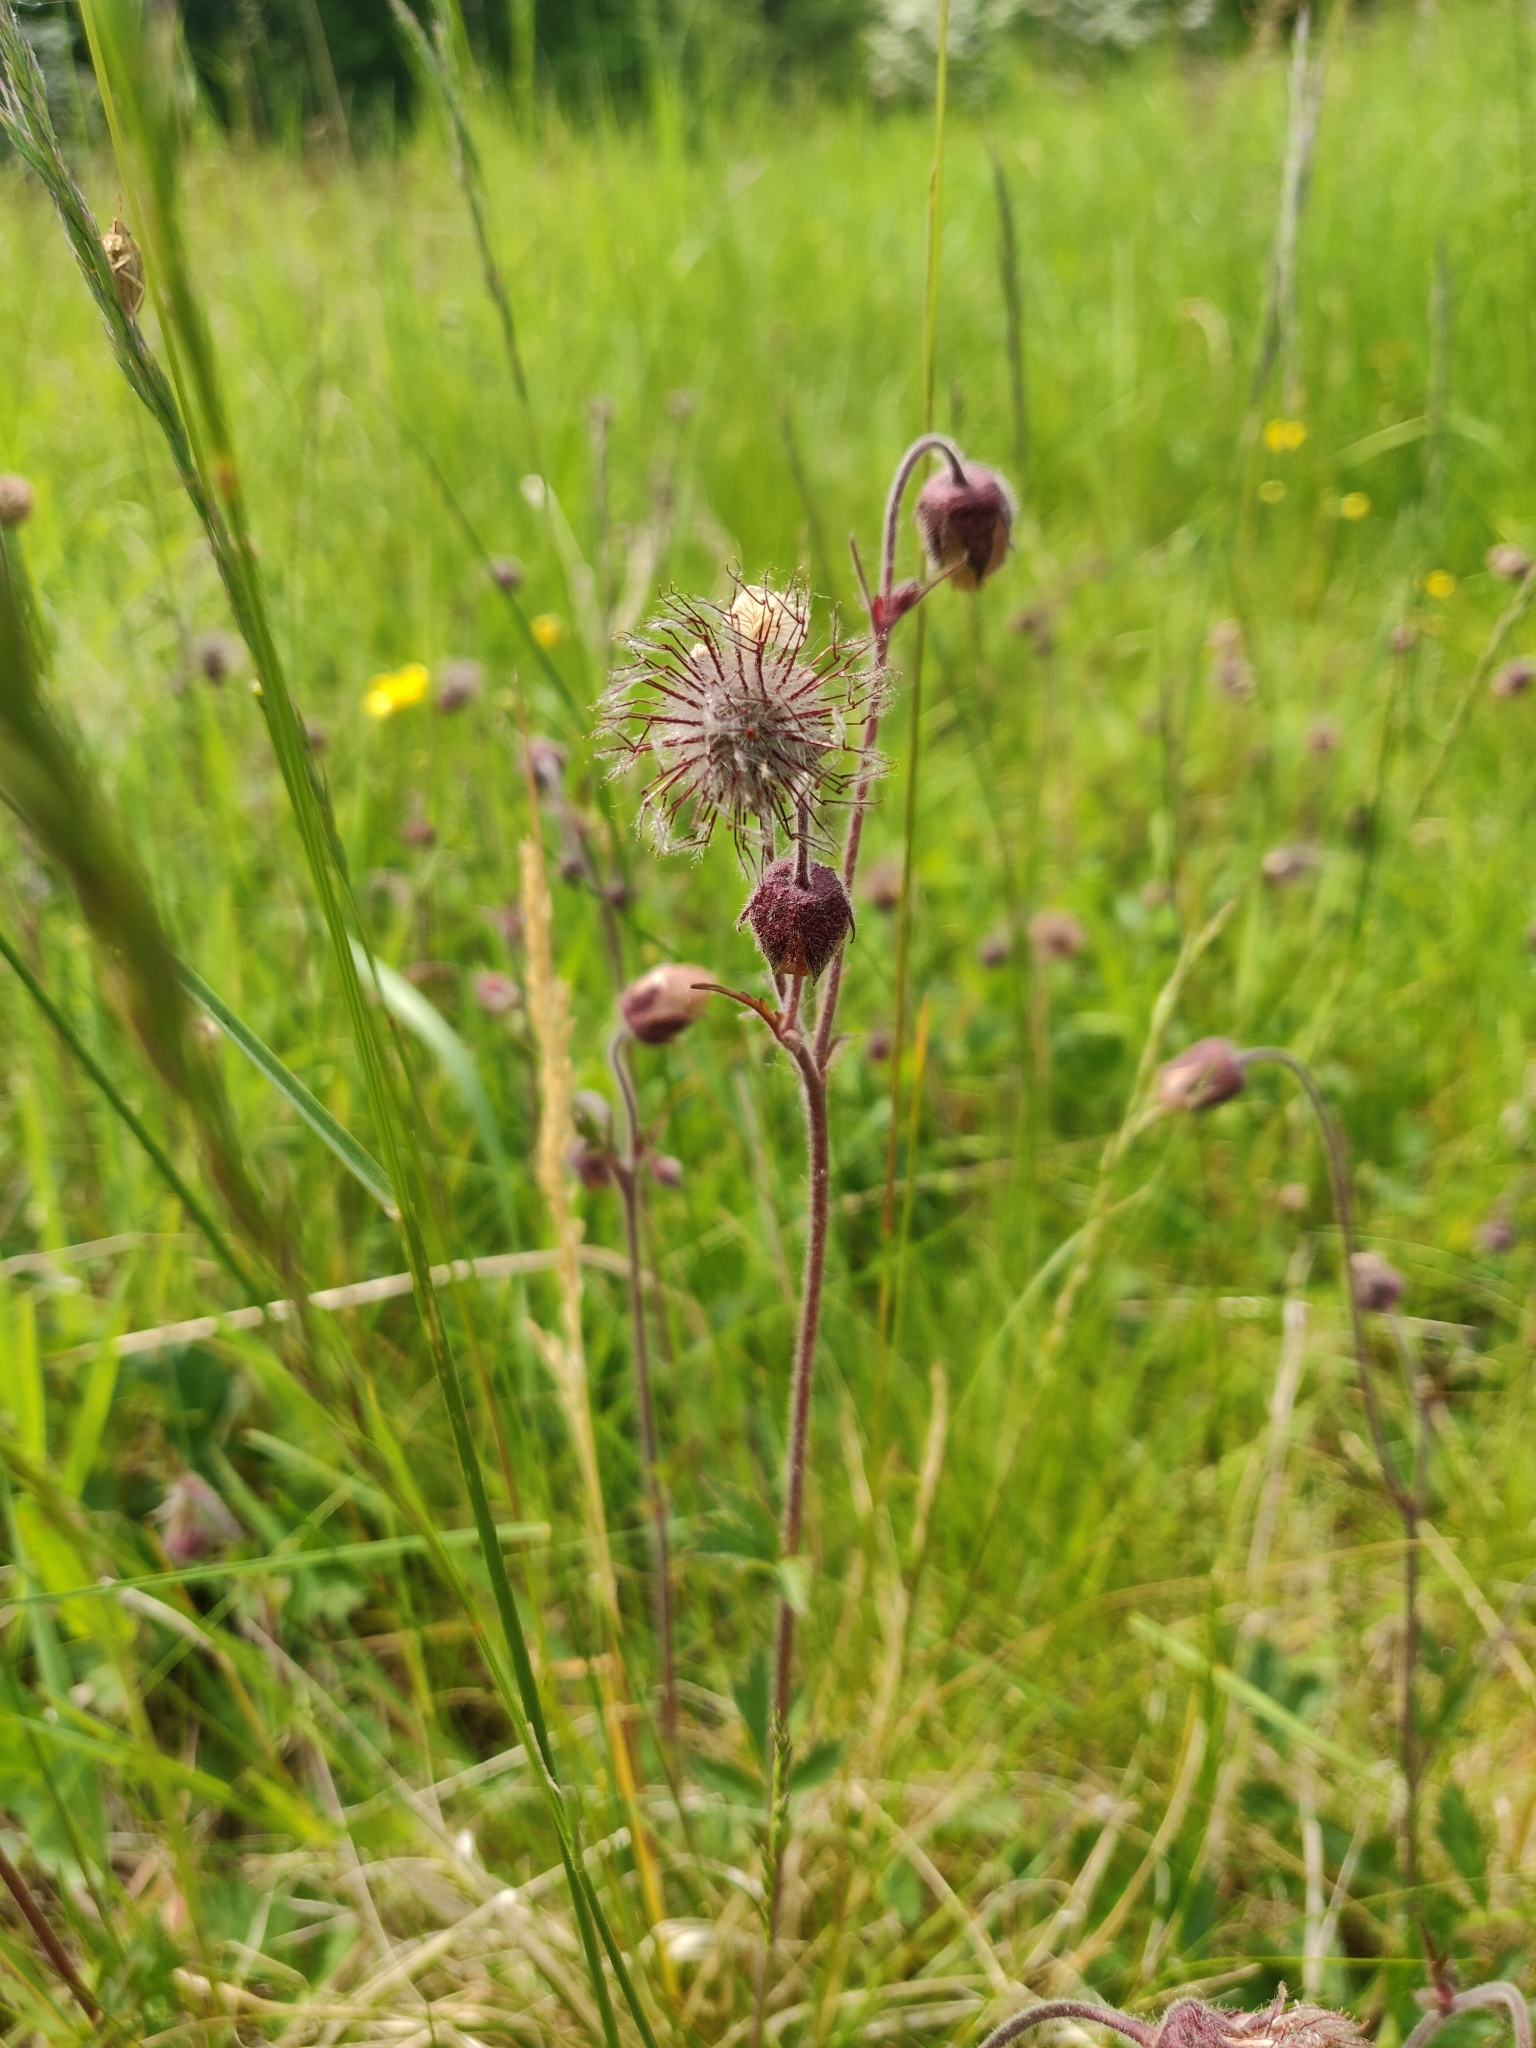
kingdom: Plantae
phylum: Tracheophyta
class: Magnoliopsida
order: Rosales
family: Rosaceae
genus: Geum
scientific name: Geum rivale
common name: Water avens
